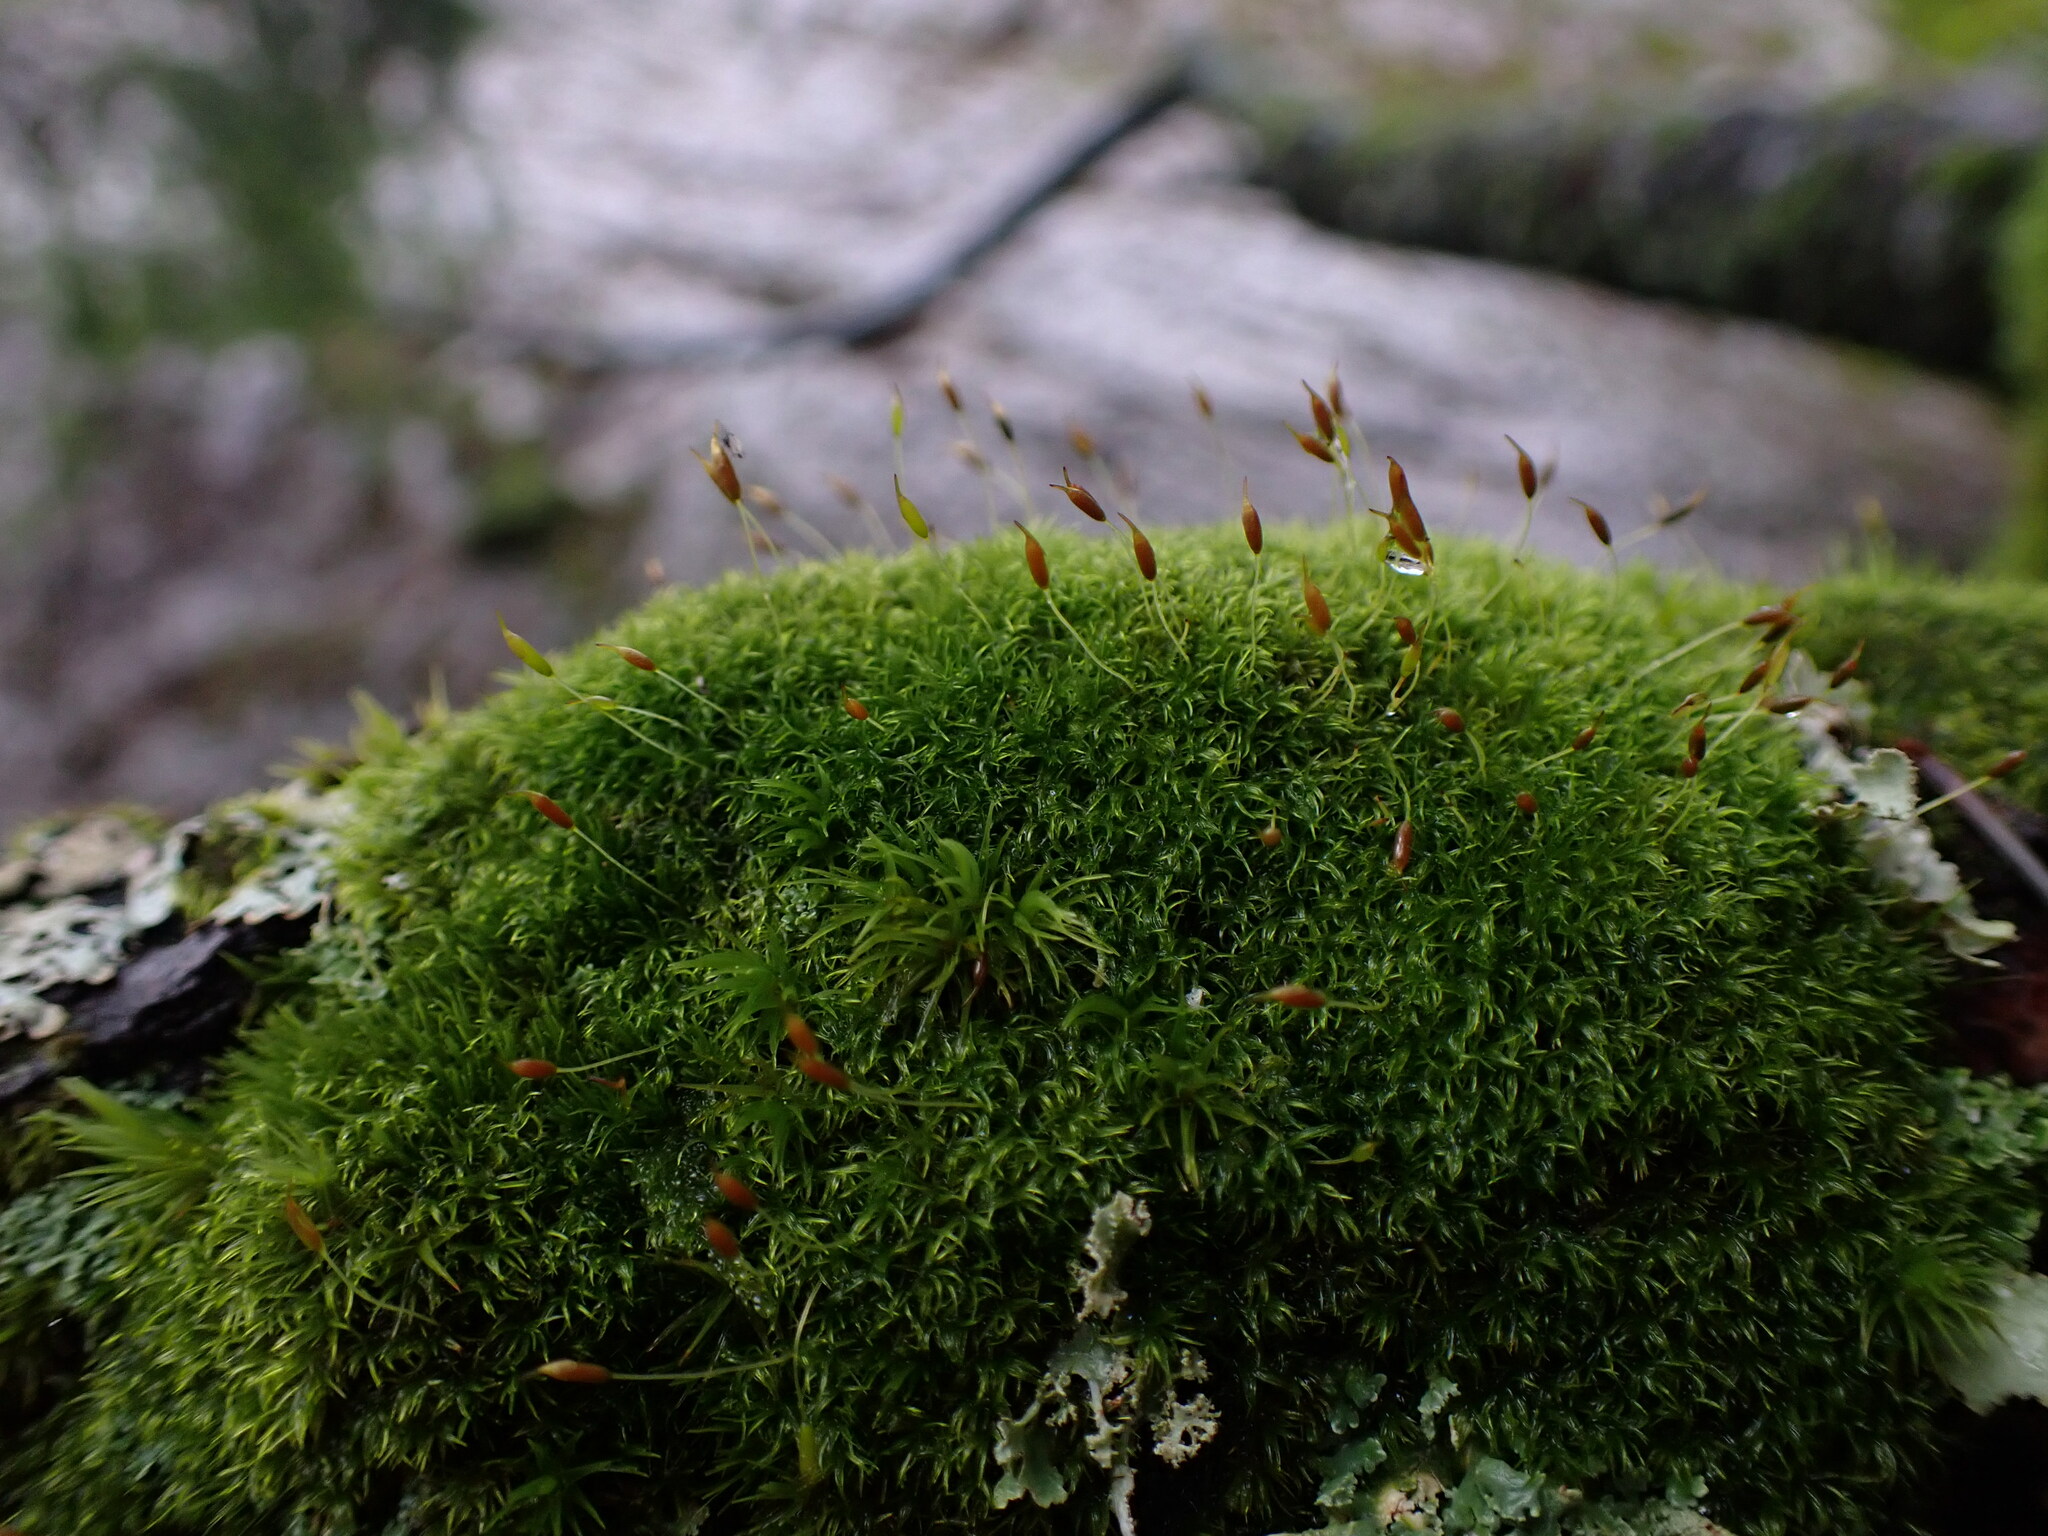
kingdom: Plantae
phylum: Bryophyta
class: Bryopsida
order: Dicranales
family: Rhabdoweisiaceae
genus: Dicranoweisia
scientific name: Dicranoweisia cirrata
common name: Common pincushion
